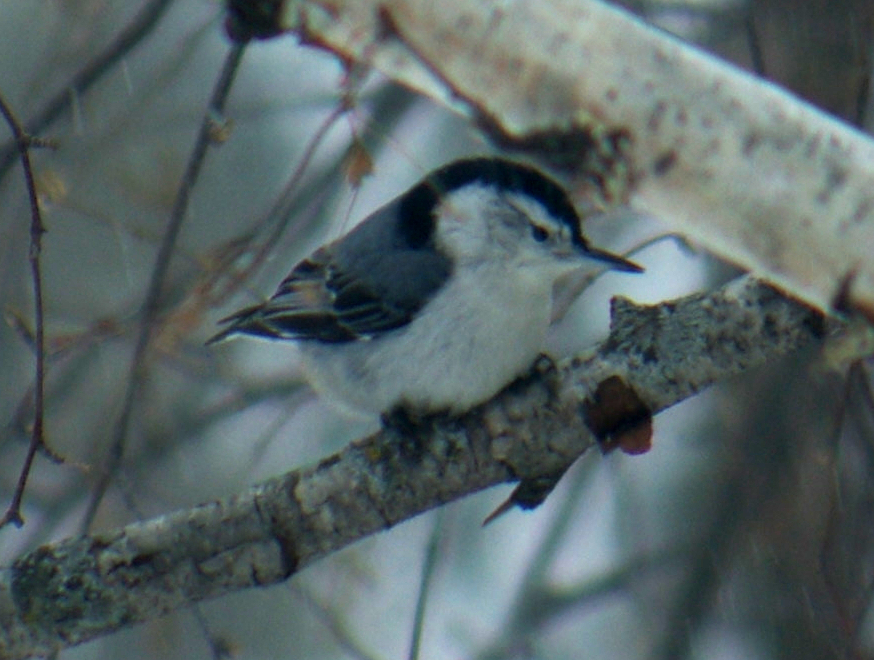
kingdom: Animalia
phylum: Chordata
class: Aves
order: Passeriformes
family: Sittidae
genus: Sitta
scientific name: Sitta carolinensis
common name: White-breasted nuthatch
